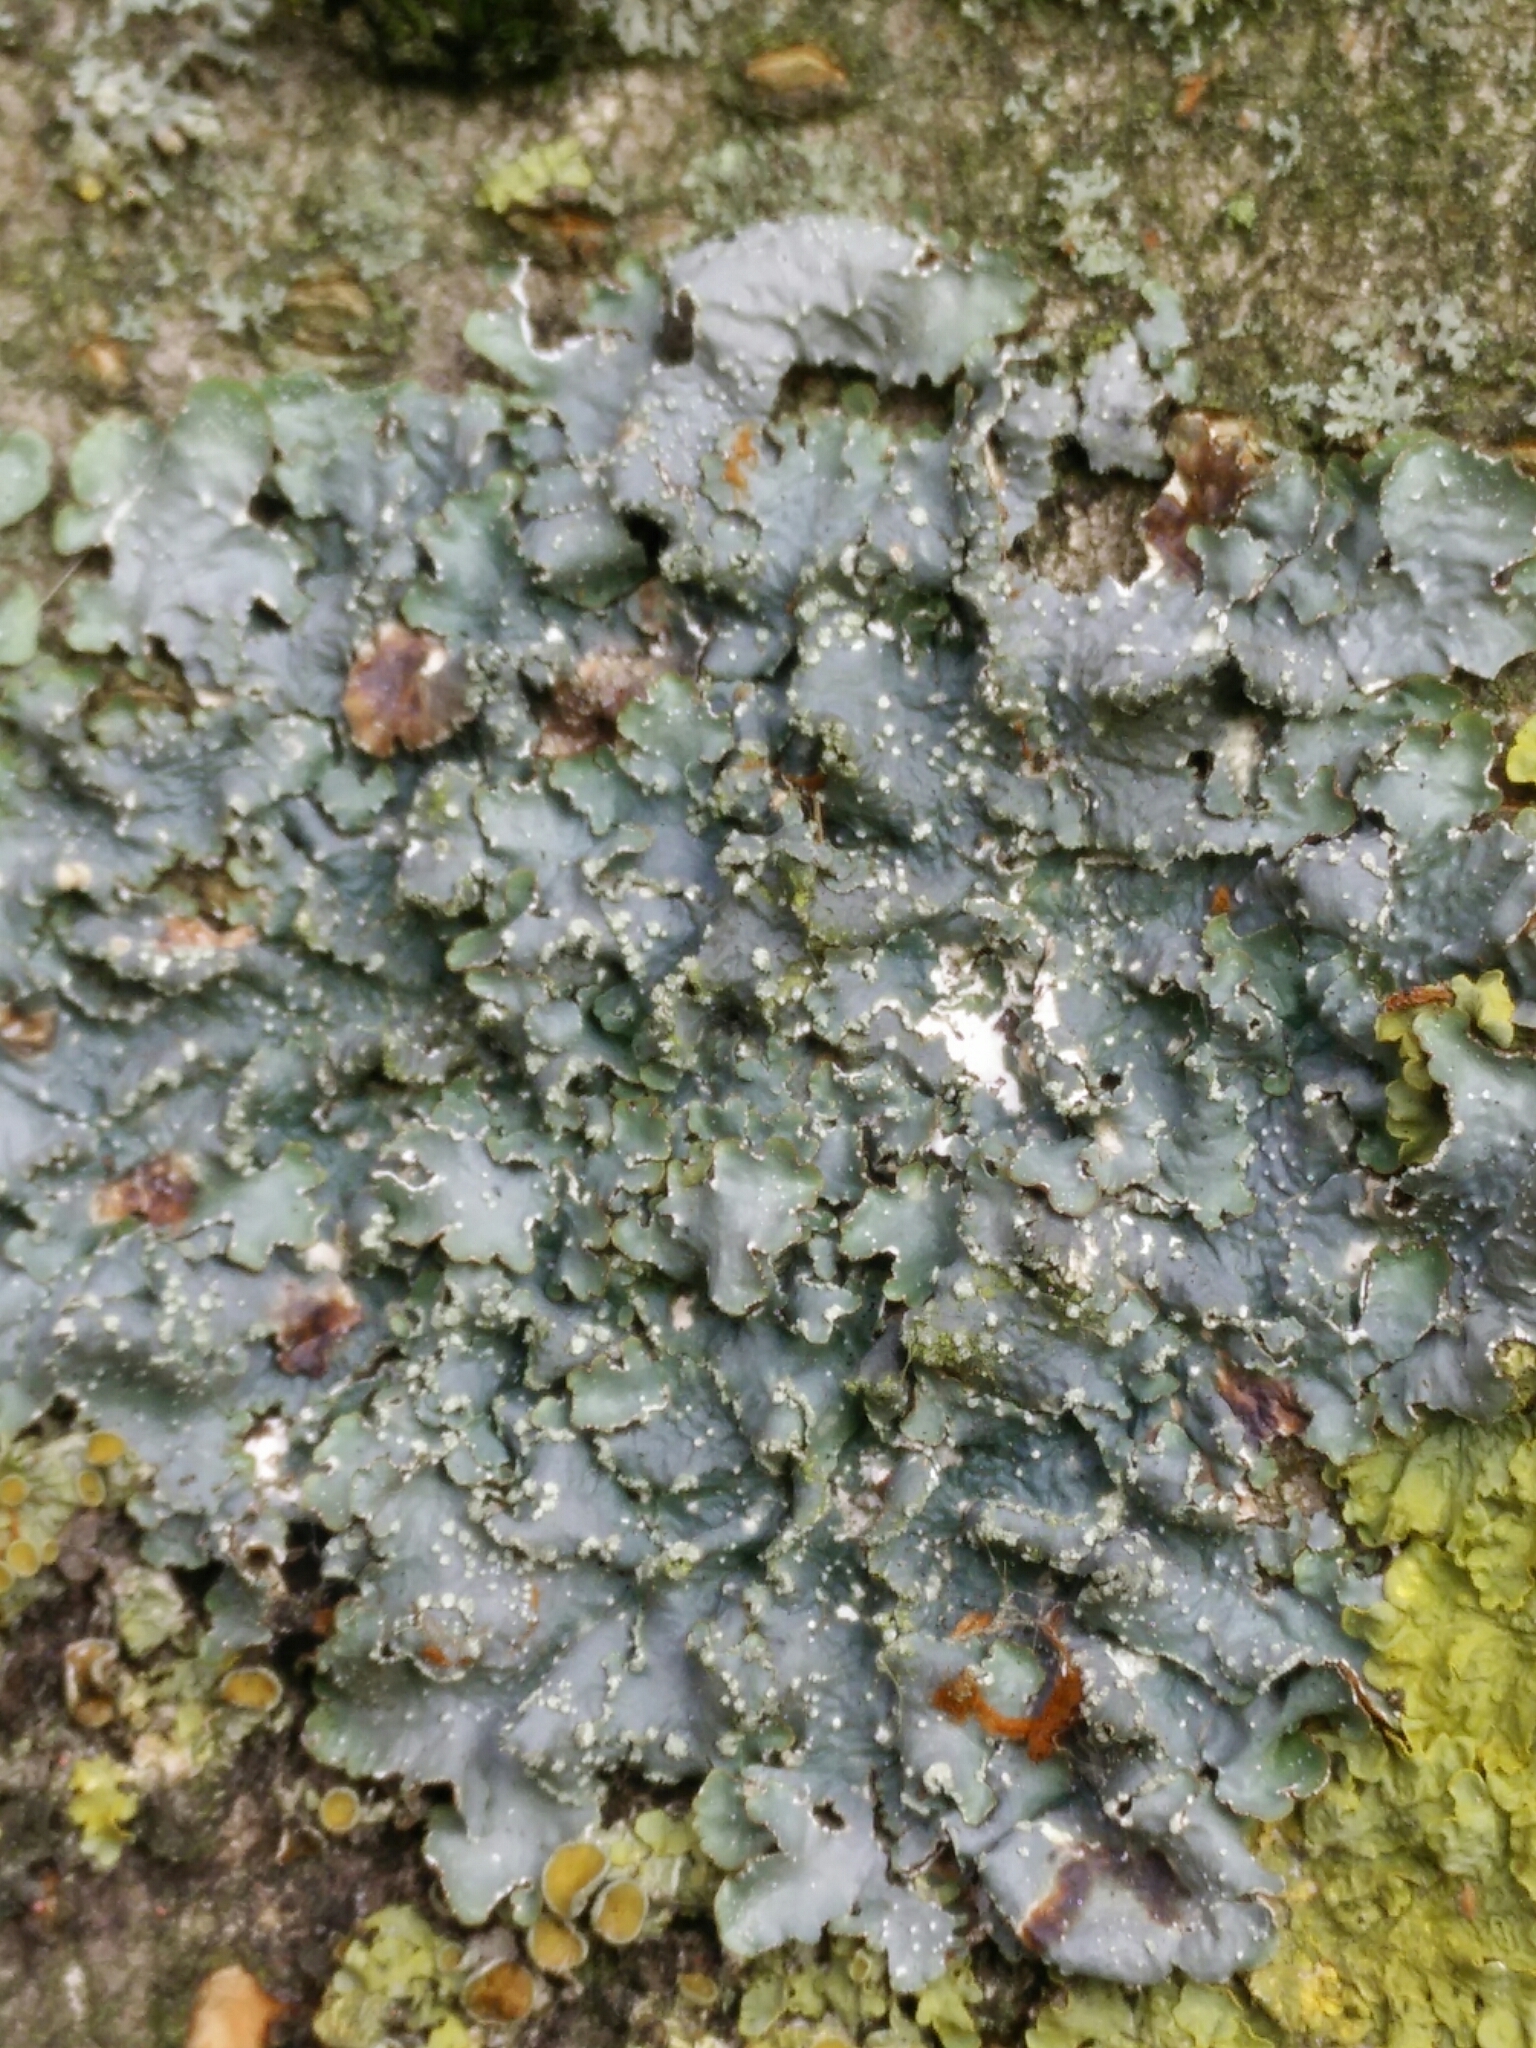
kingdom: Fungi
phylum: Ascomycota
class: Lecanoromycetes
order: Lecanorales
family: Parmeliaceae
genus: Punctelia
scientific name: Punctelia subrudecta
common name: Powdered speckled shield lichen
